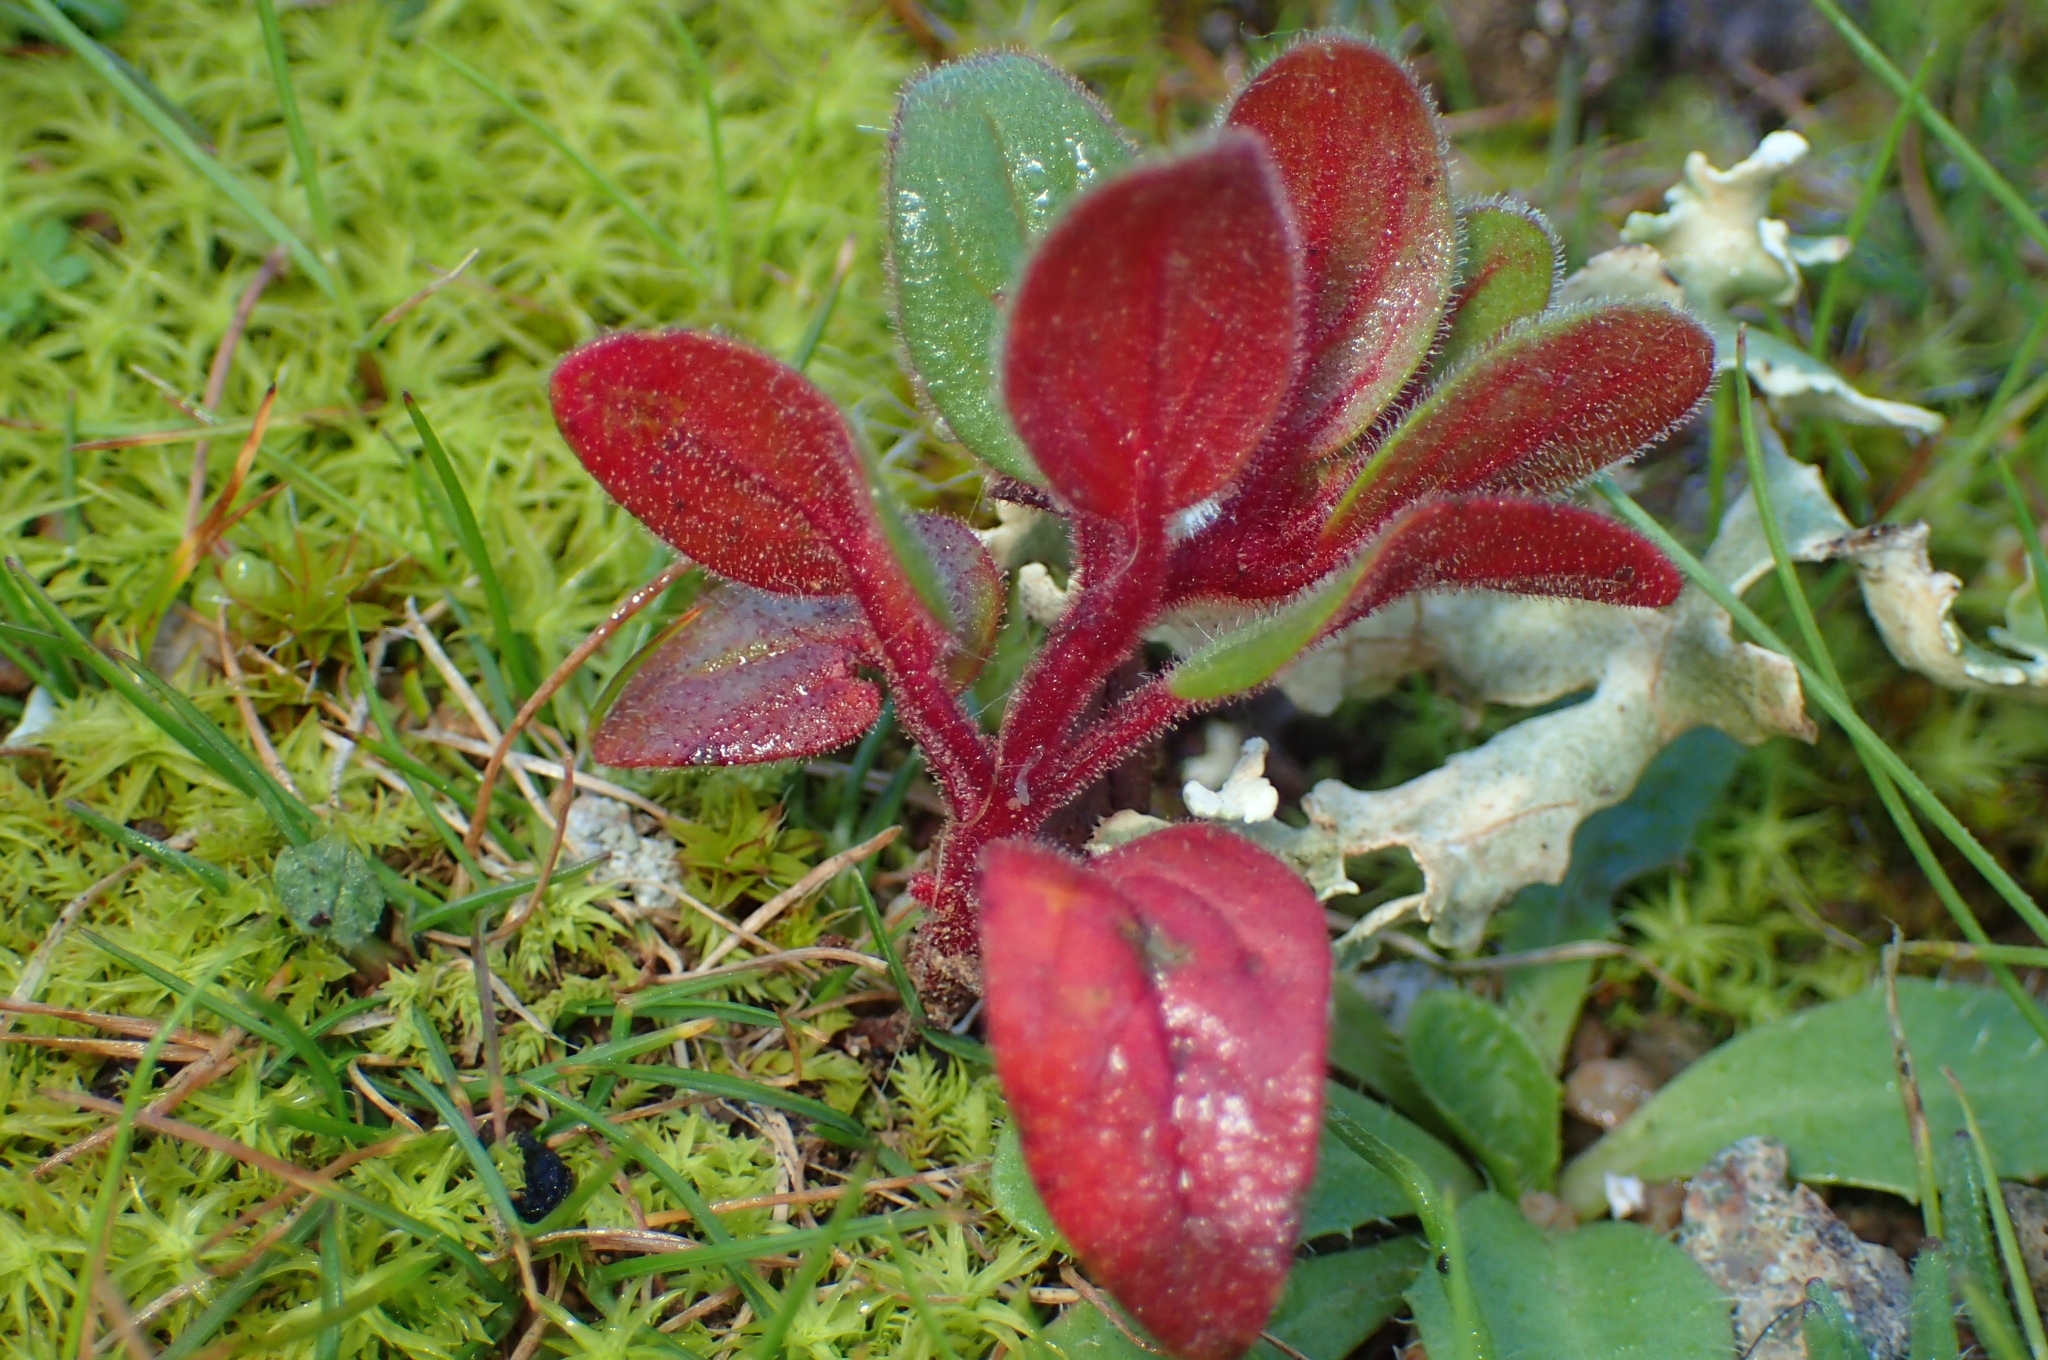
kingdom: Plantae
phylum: Tracheophyta
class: Magnoliopsida
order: Malvales
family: Cistaceae
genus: Helianthemum
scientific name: Helianthemum sanguineum
